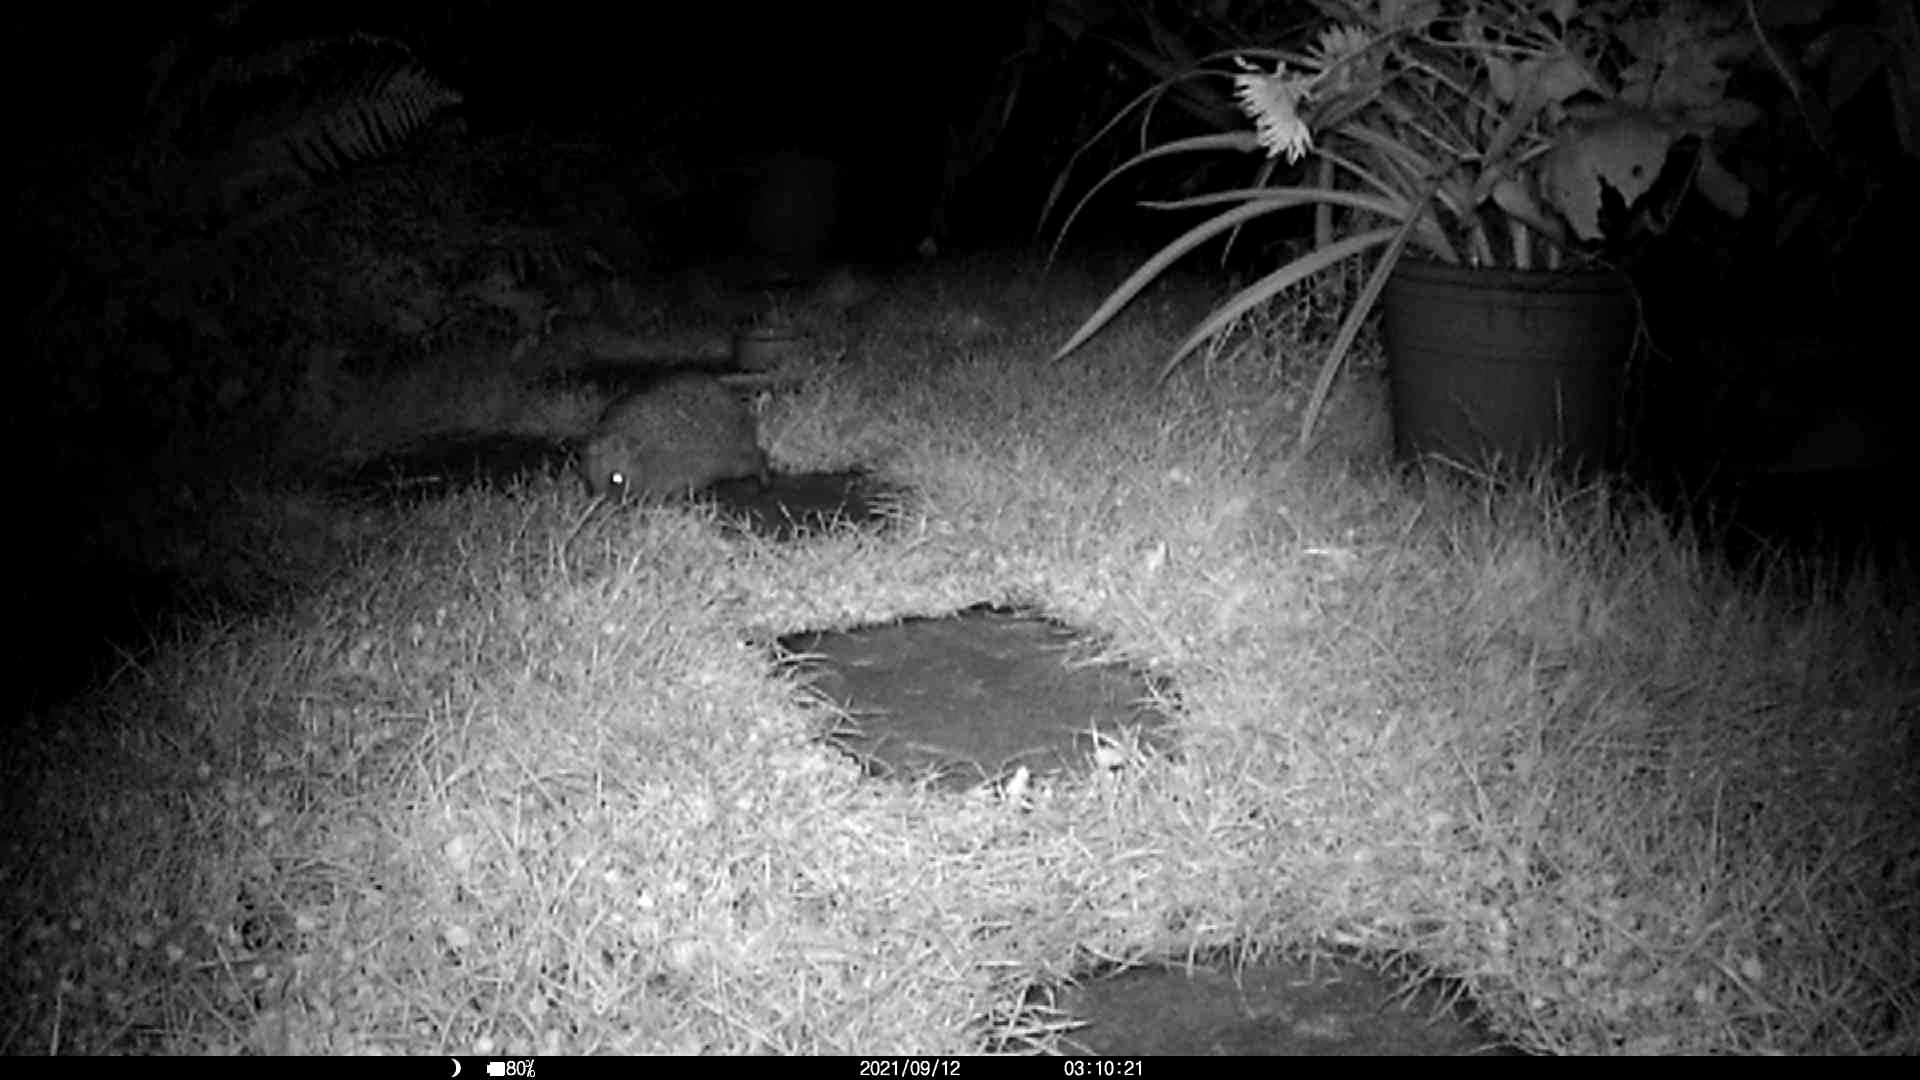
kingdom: Animalia
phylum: Chordata
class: Mammalia
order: Erinaceomorpha
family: Erinaceidae
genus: Erinaceus
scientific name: Erinaceus europaeus
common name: West european hedgehog
